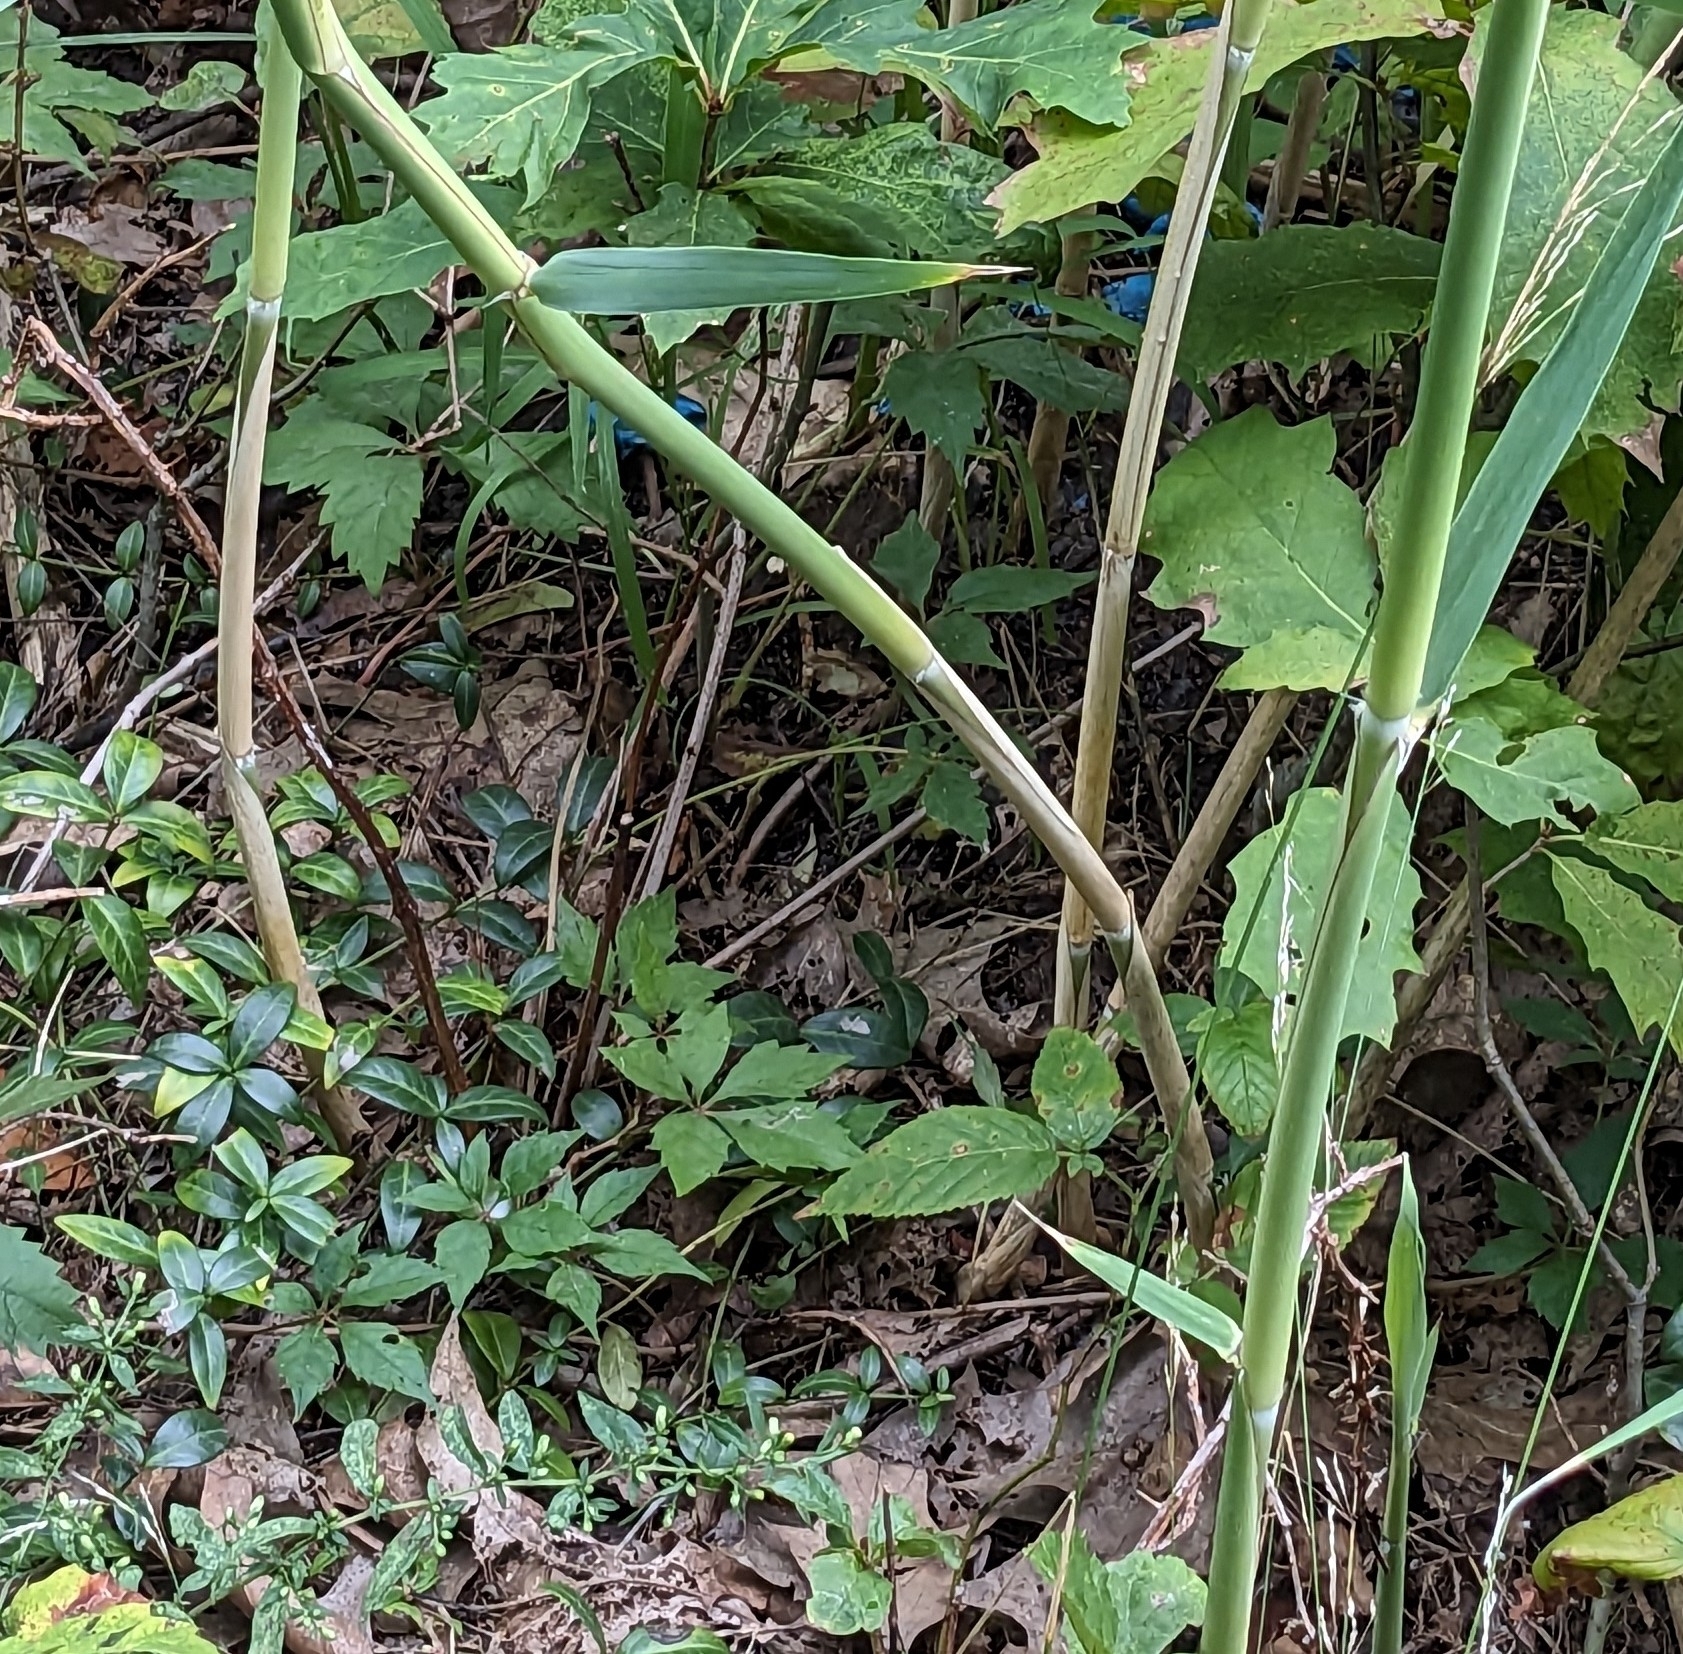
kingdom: Plantae
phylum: Tracheophyta
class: Liliopsida
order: Poales
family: Poaceae
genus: Phragmites
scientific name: Phragmites australis
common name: Common reed
